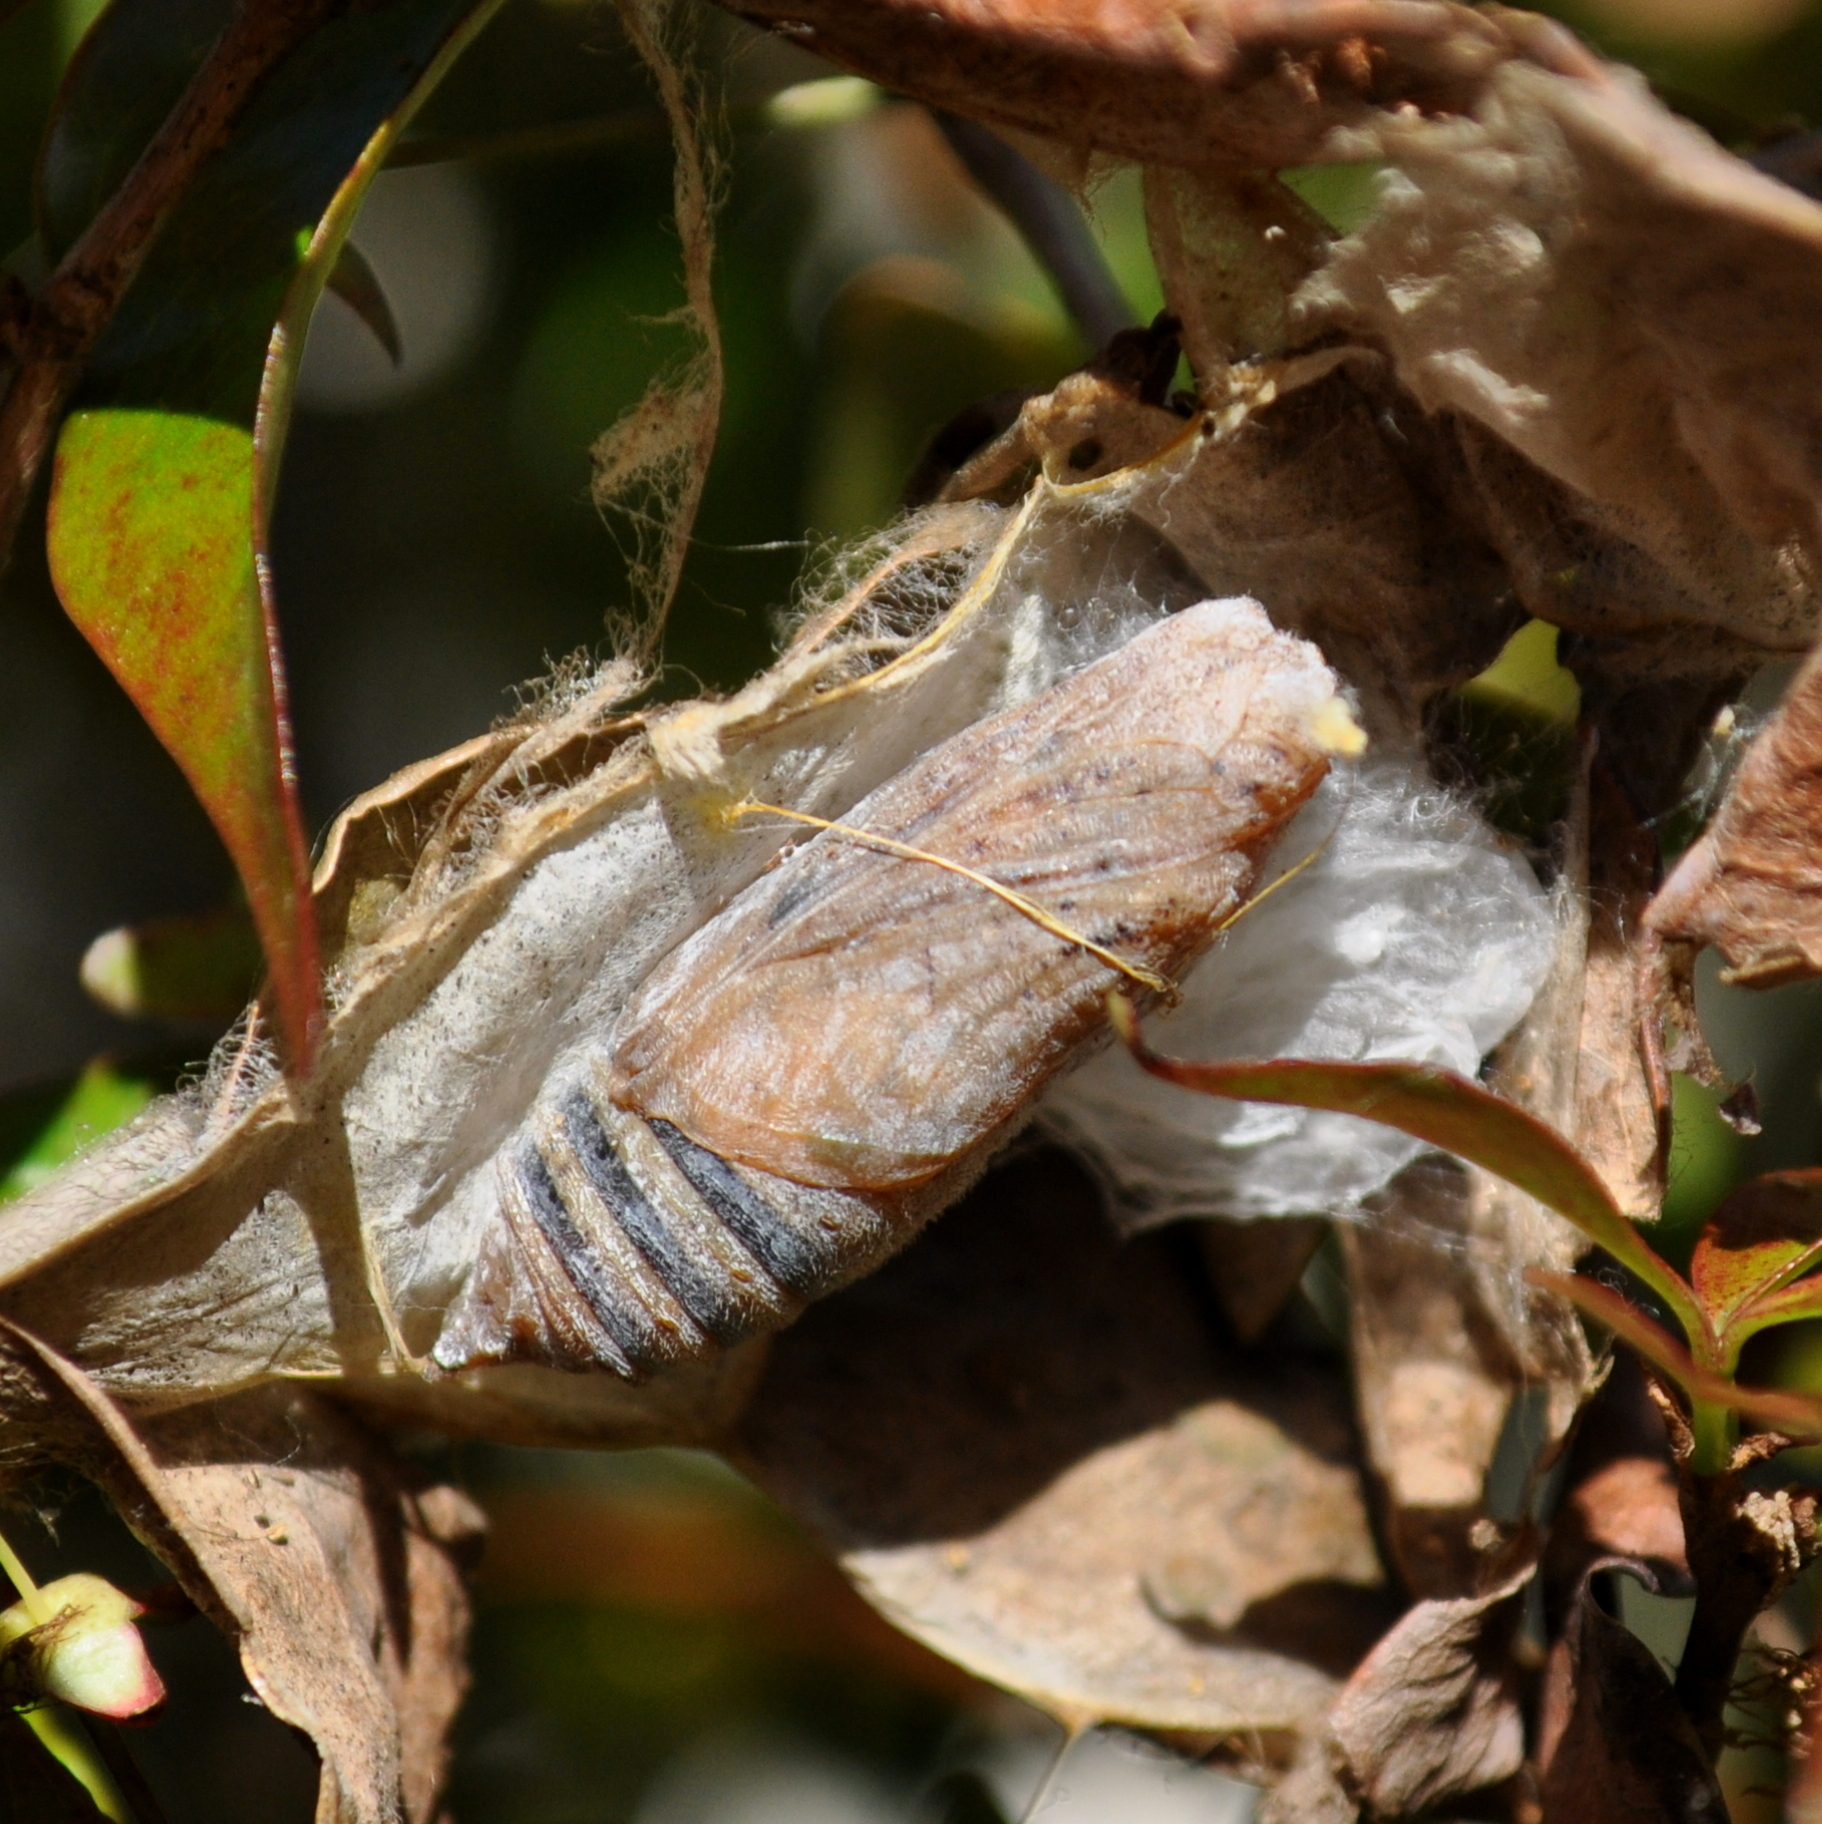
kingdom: Animalia
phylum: Arthropoda
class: Insecta
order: Lepidoptera
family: Hesperiidae
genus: Phocides
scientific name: Phocides polybius
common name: Guava skipper
